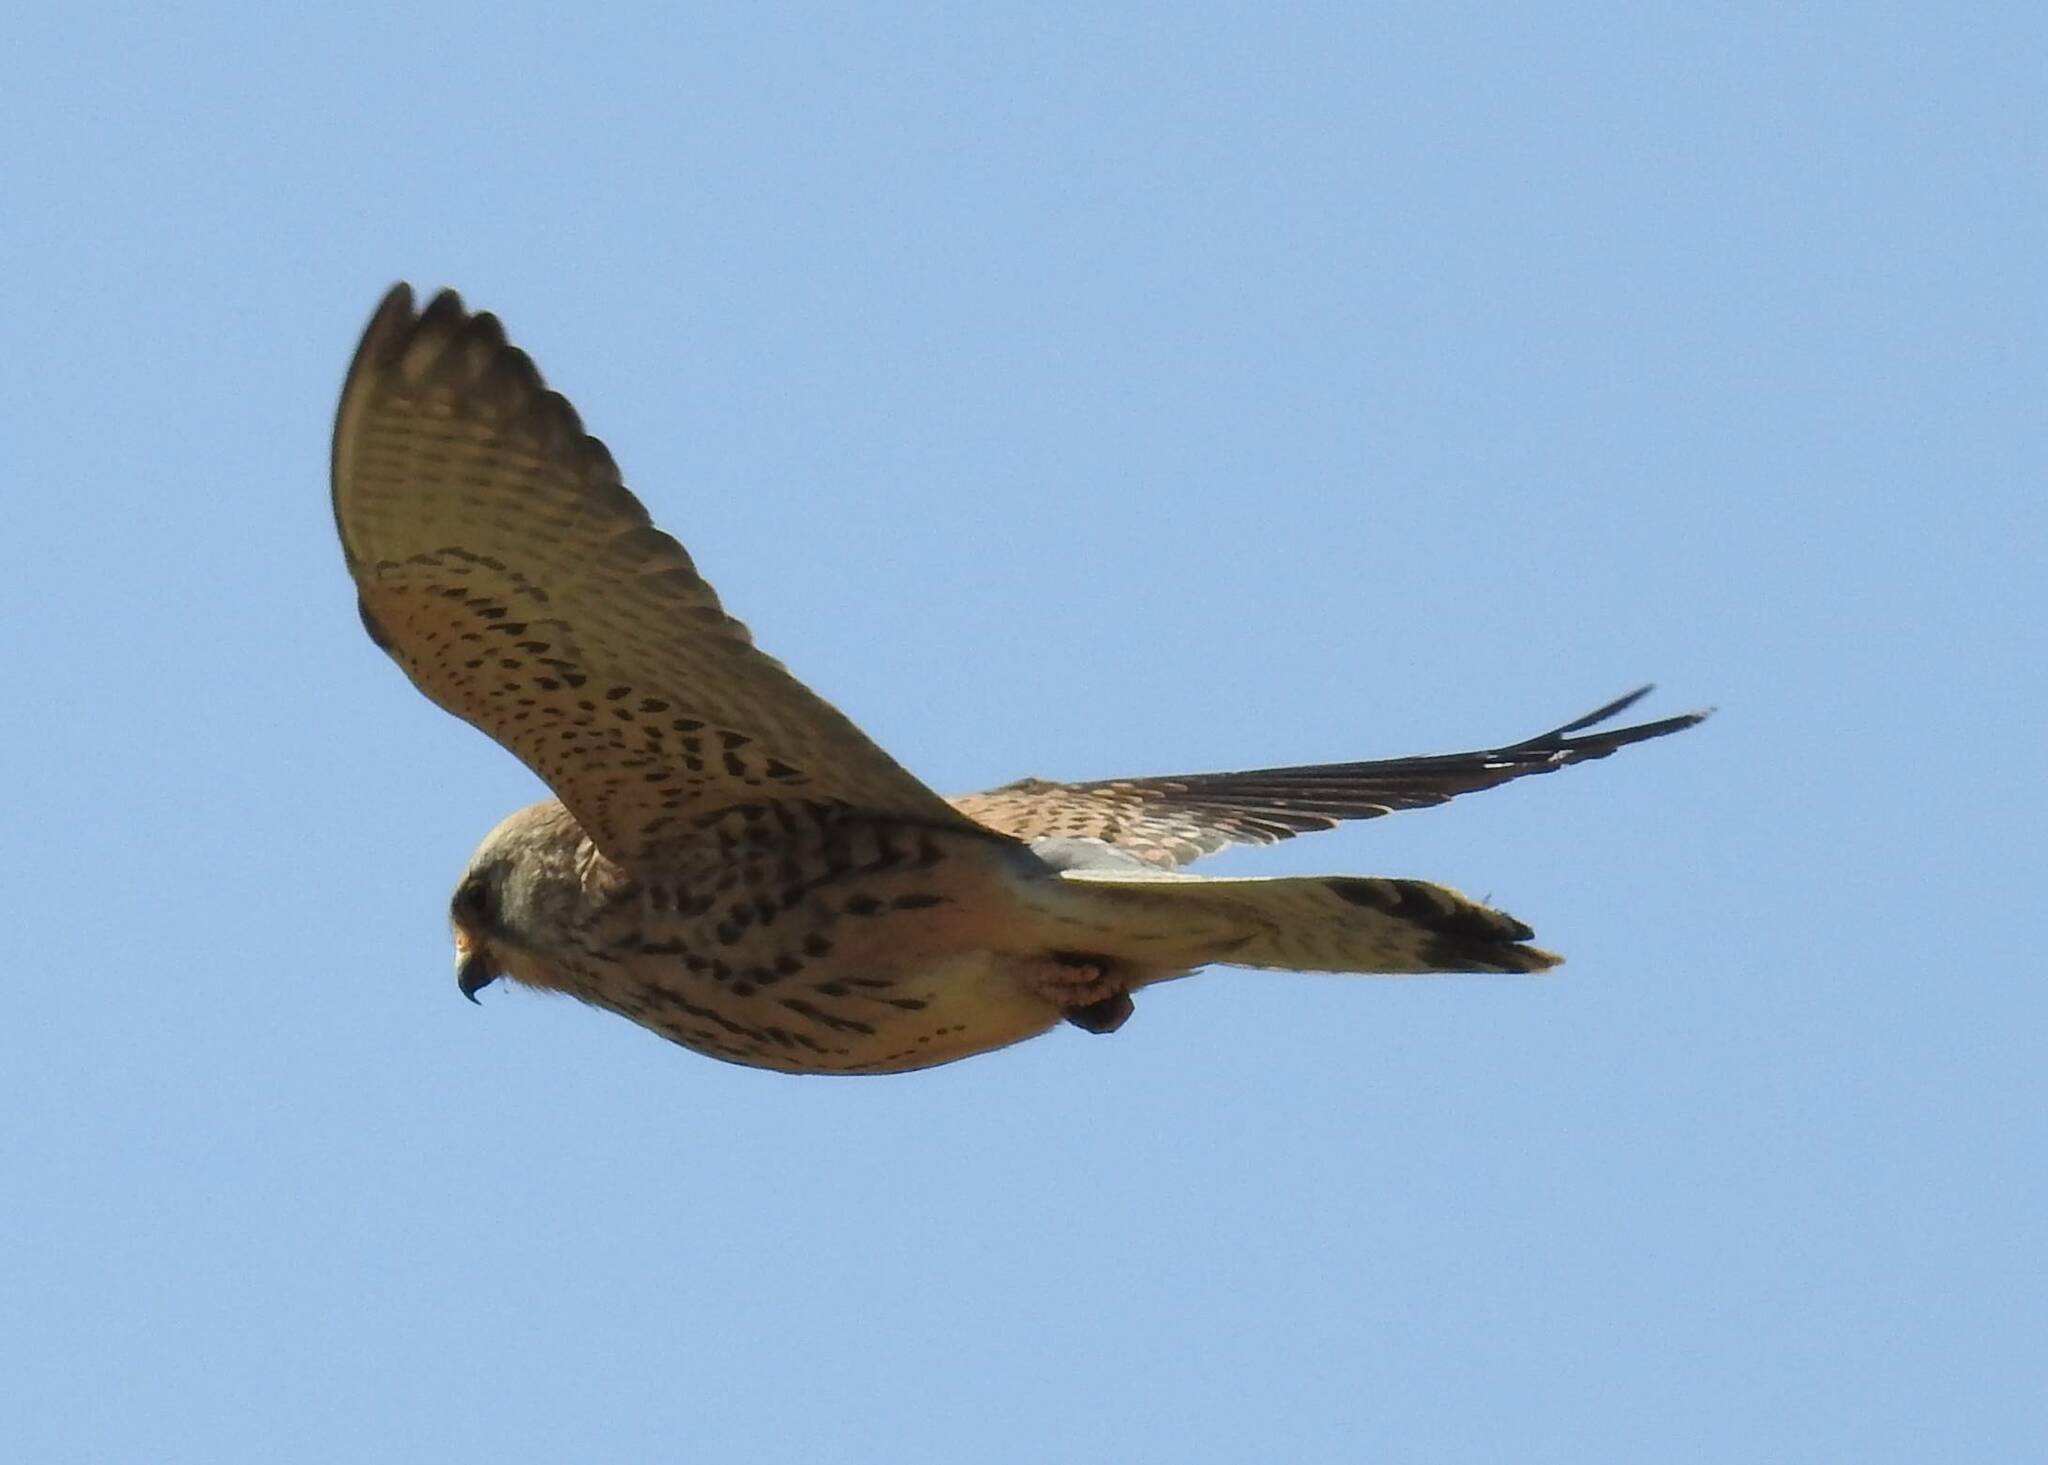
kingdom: Animalia
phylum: Chordata
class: Aves
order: Falconiformes
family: Falconidae
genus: Falco
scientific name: Falco tinnunculus
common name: Common kestrel
